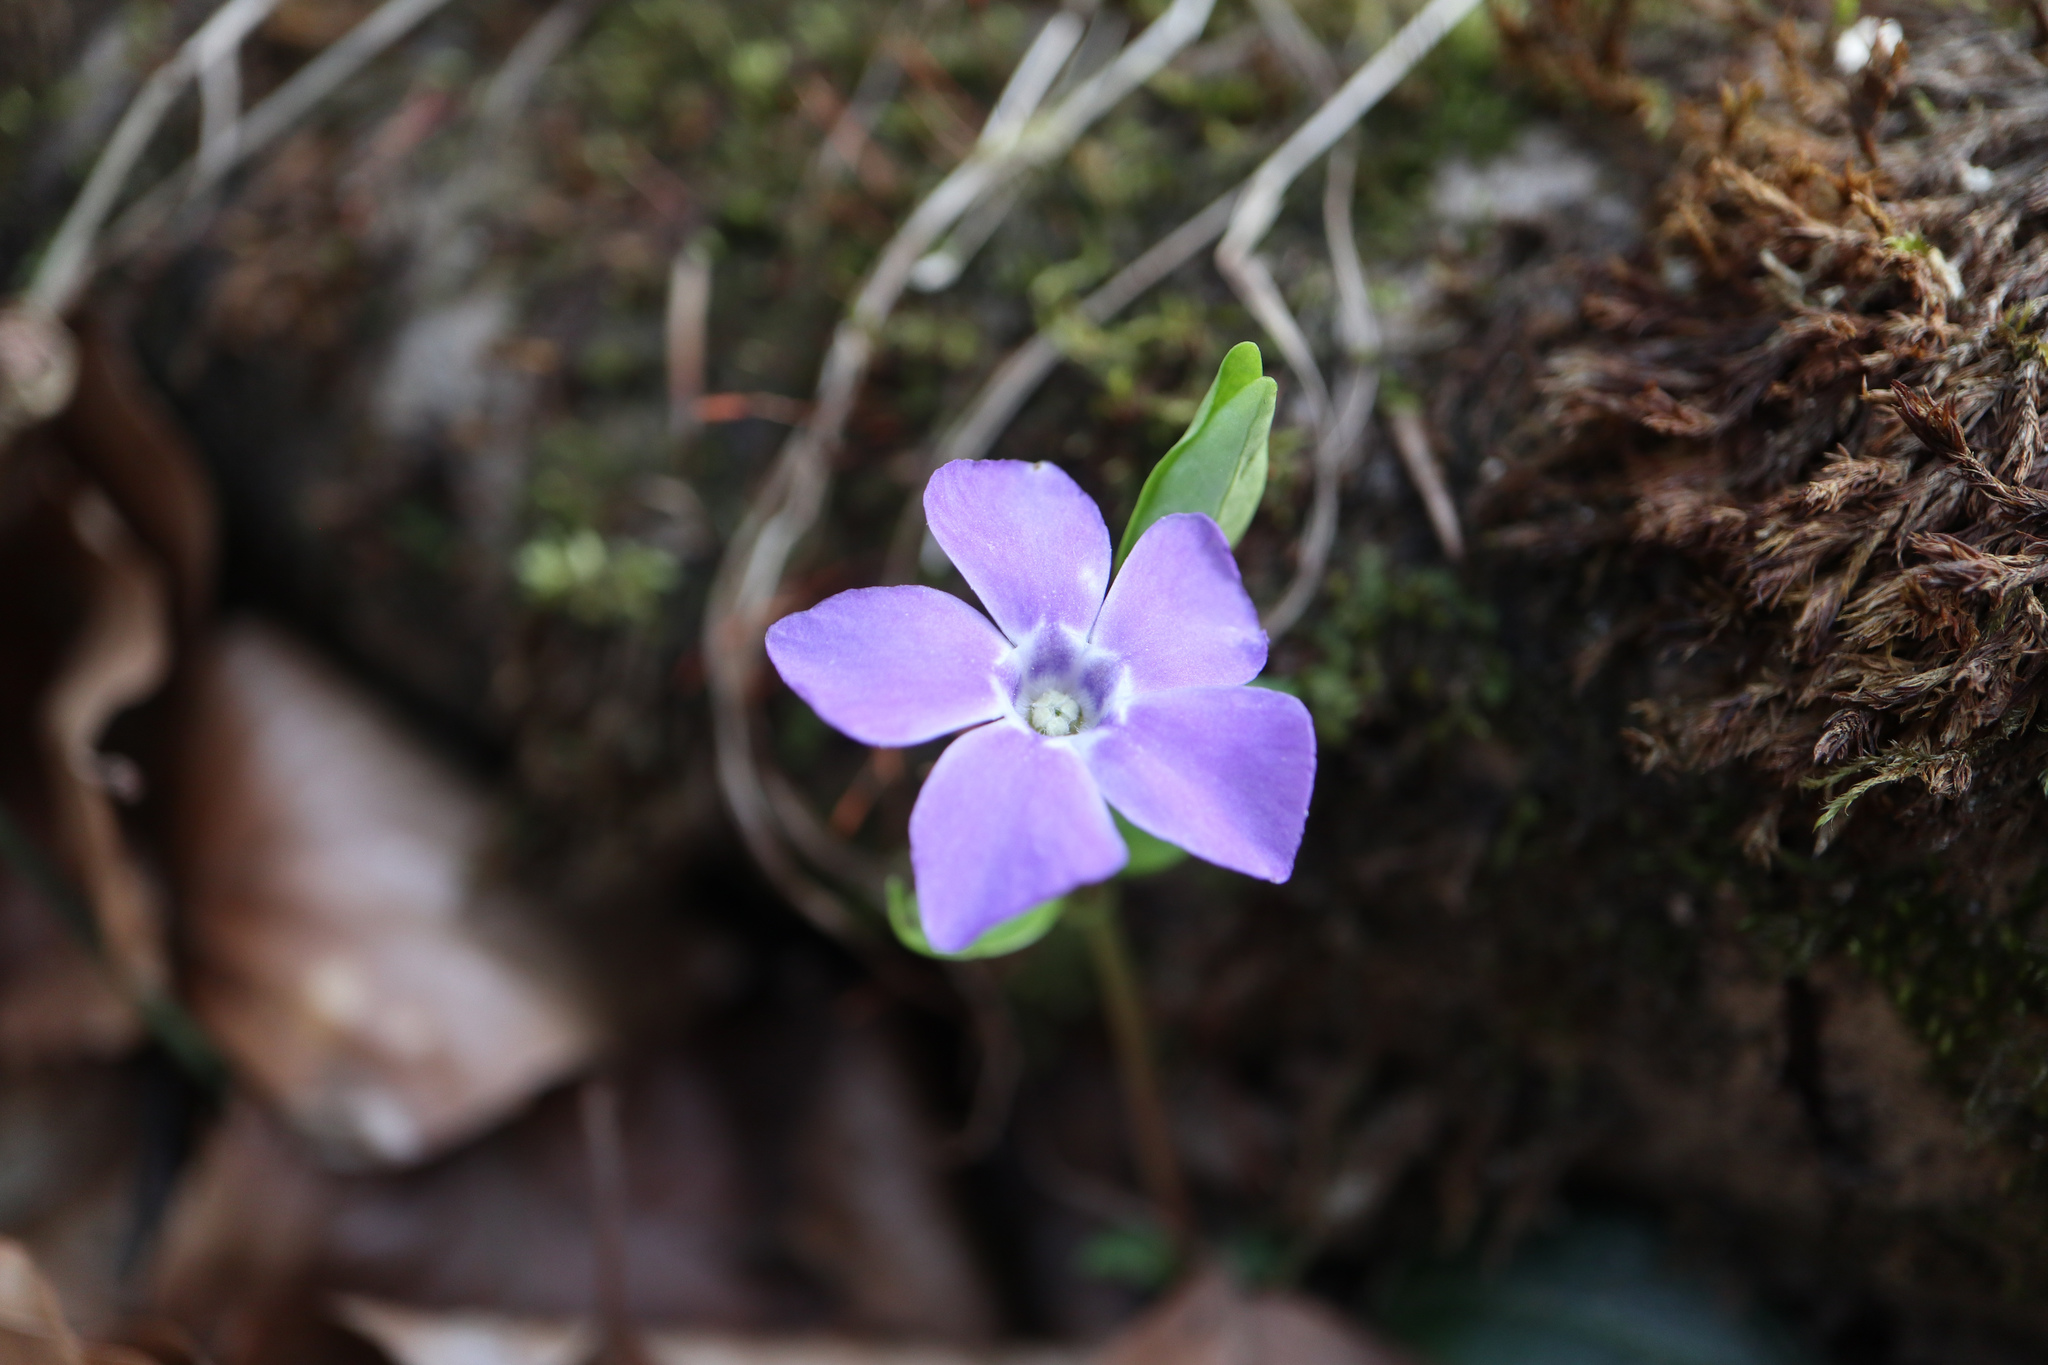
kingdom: Plantae
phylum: Tracheophyta
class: Magnoliopsida
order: Gentianales
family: Apocynaceae
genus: Vinca
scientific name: Vinca minor
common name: Lesser periwinkle
